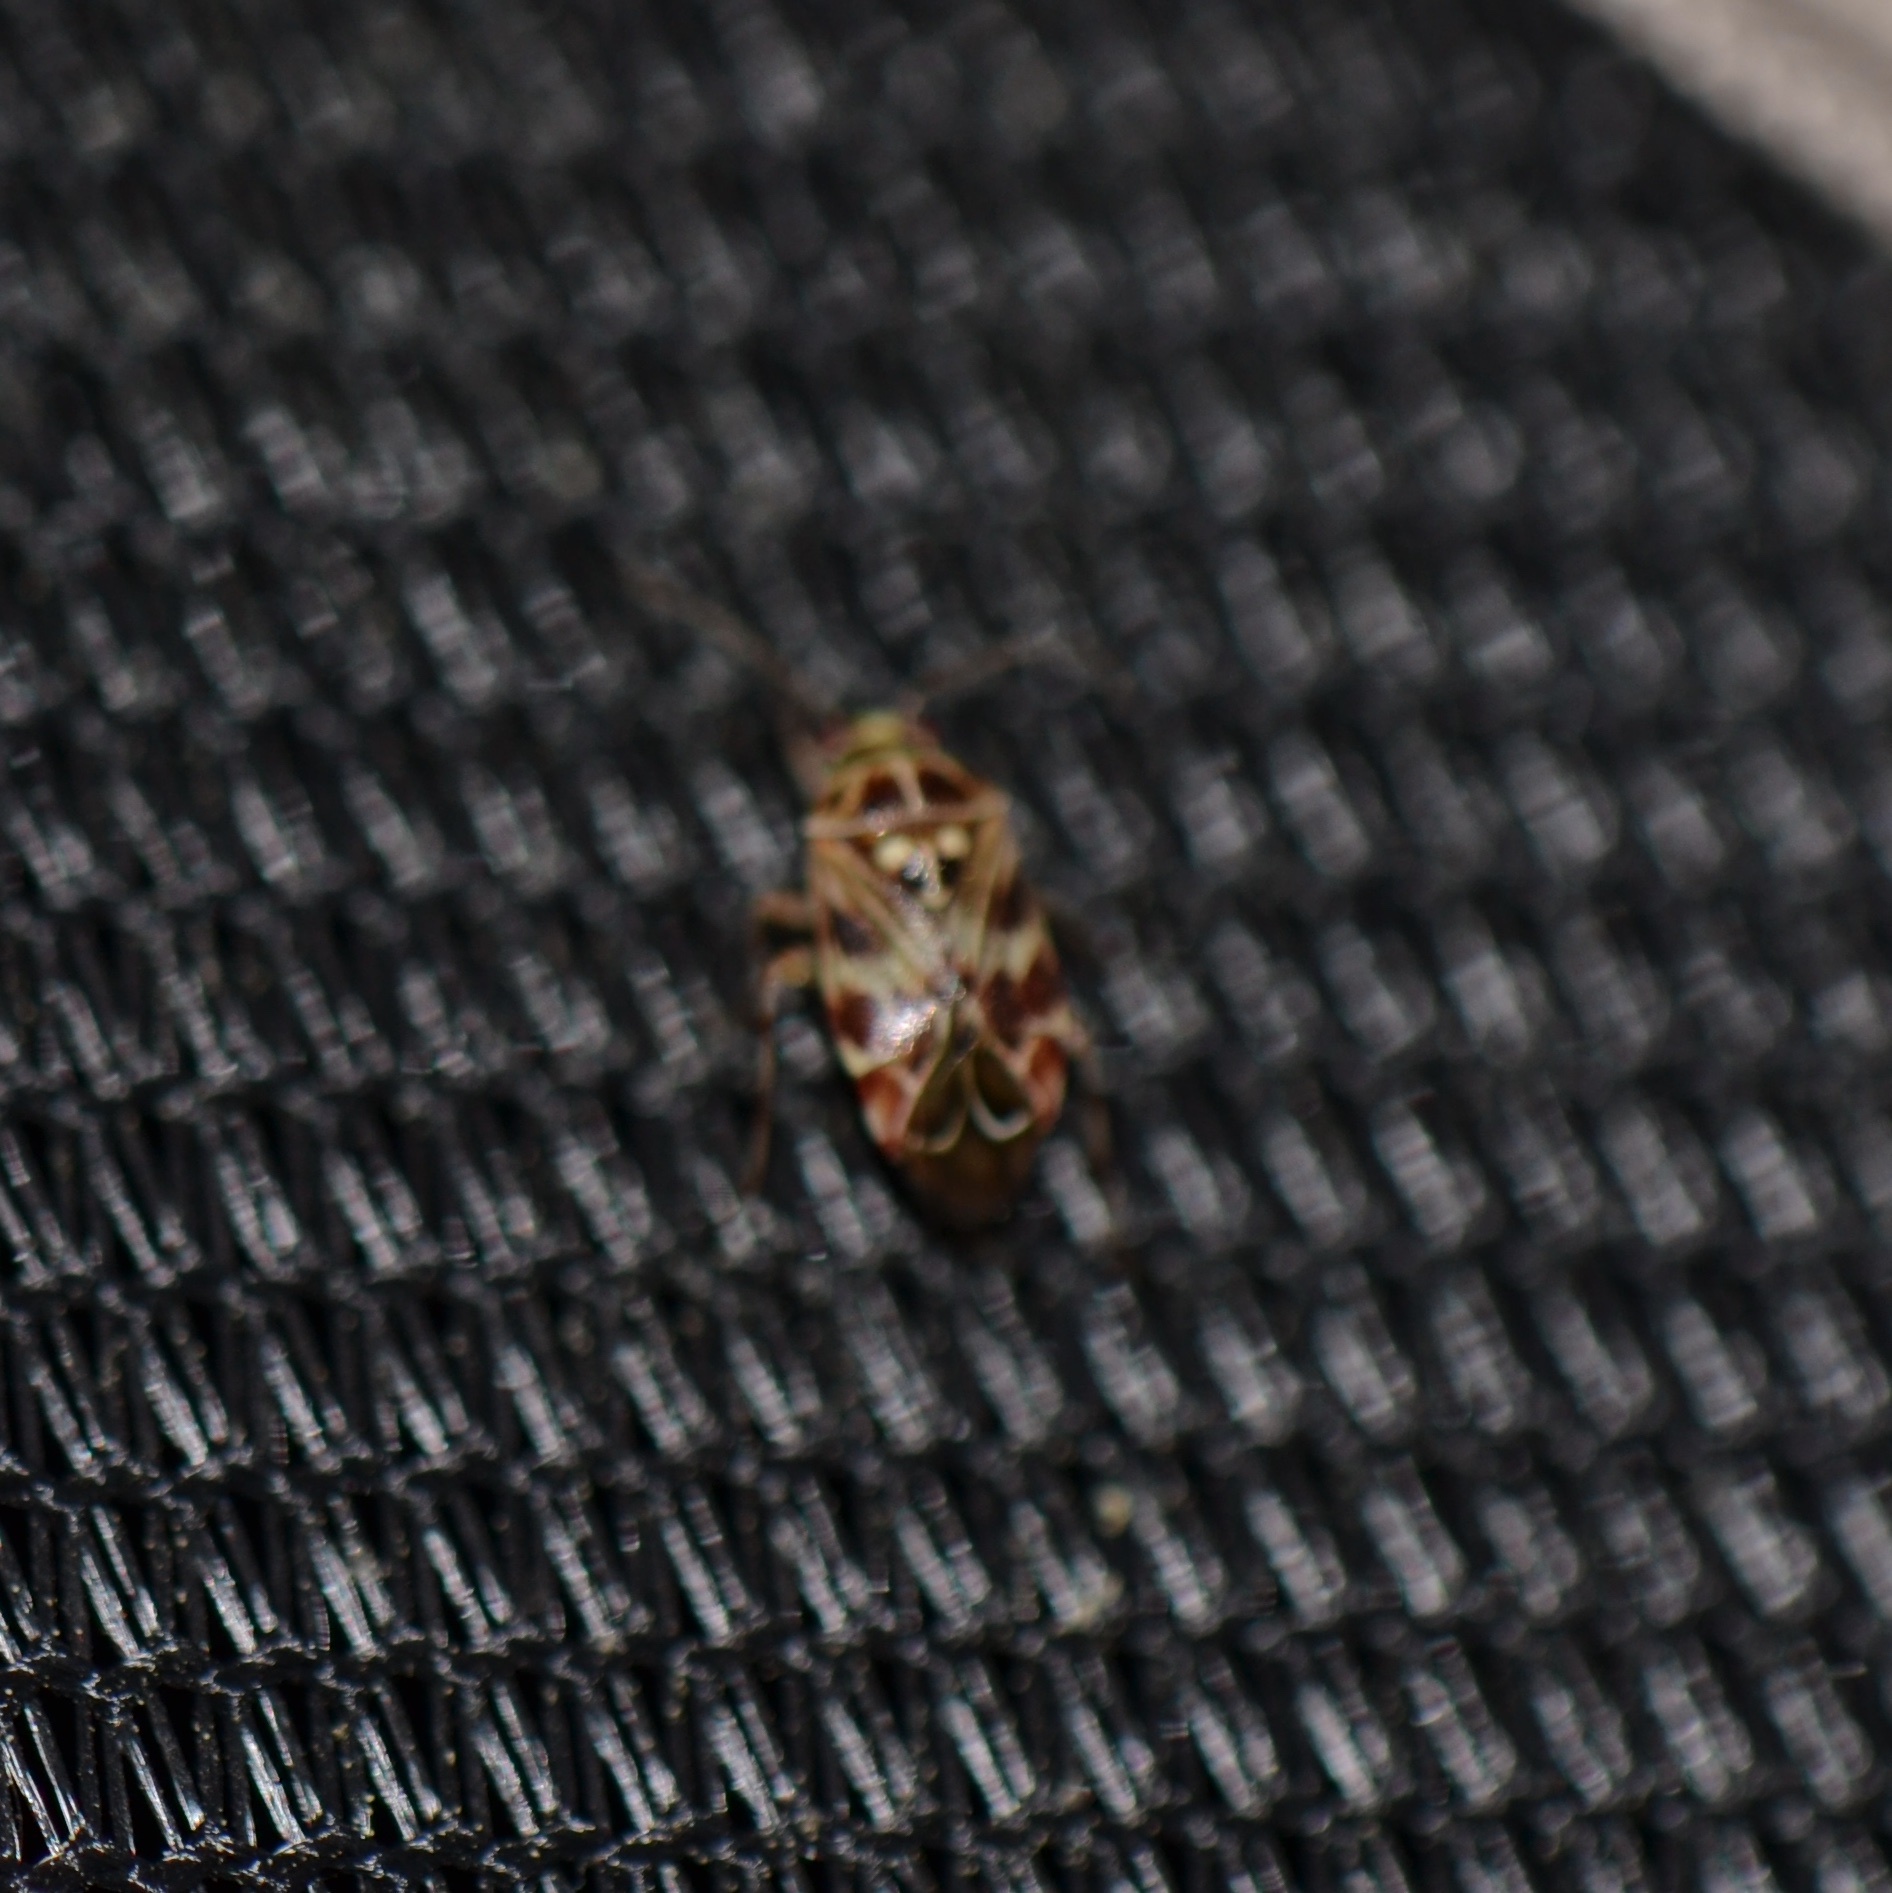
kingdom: Animalia
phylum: Arthropoda
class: Insecta
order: Hemiptera
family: Miridae
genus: Tropidosteptes
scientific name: Tropidosteptes quercicola
